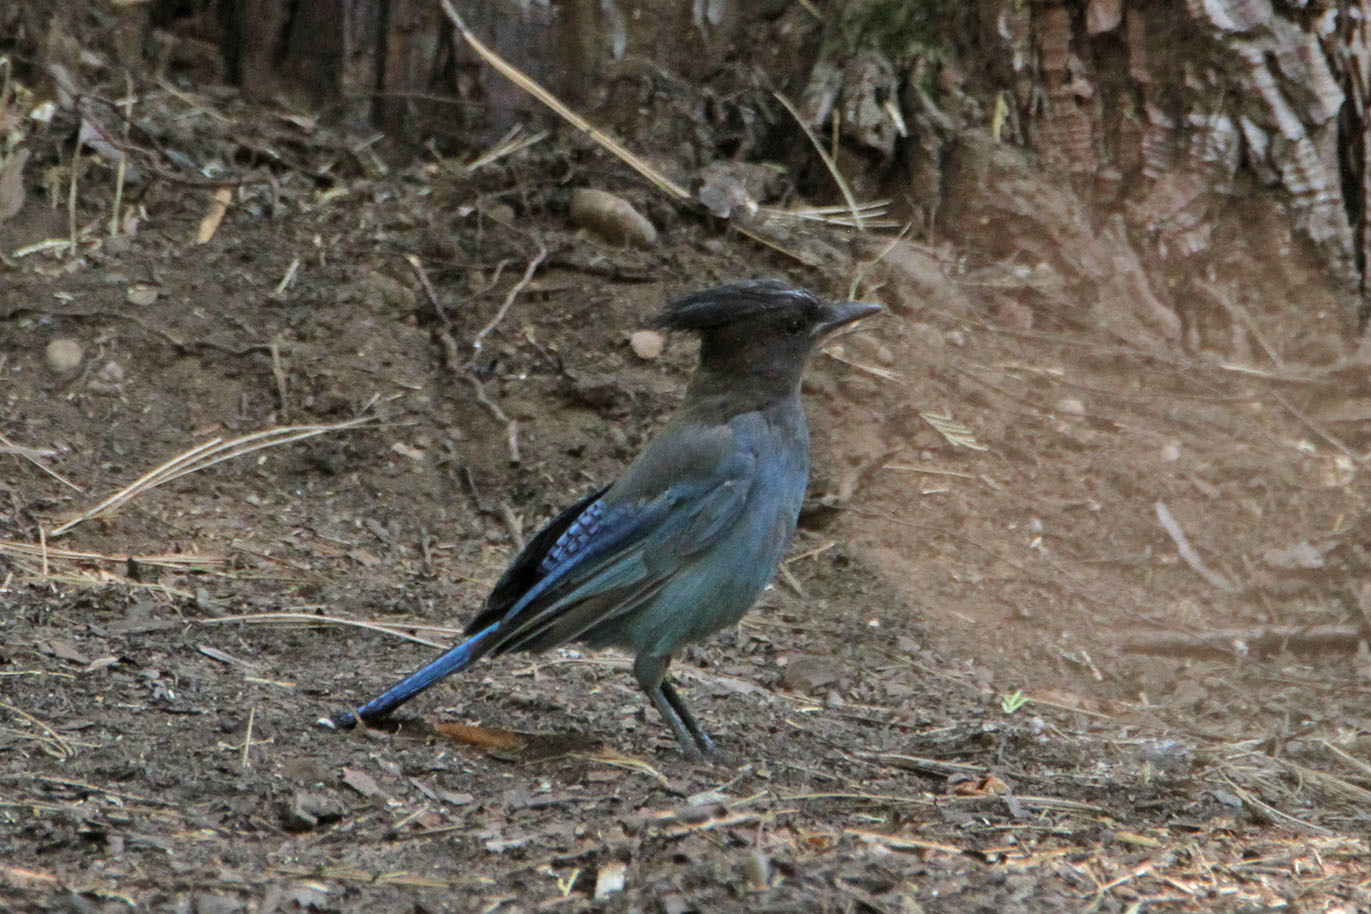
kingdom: Animalia
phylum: Chordata
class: Aves
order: Passeriformes
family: Corvidae
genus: Cyanocitta
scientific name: Cyanocitta stelleri
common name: Steller's jay
